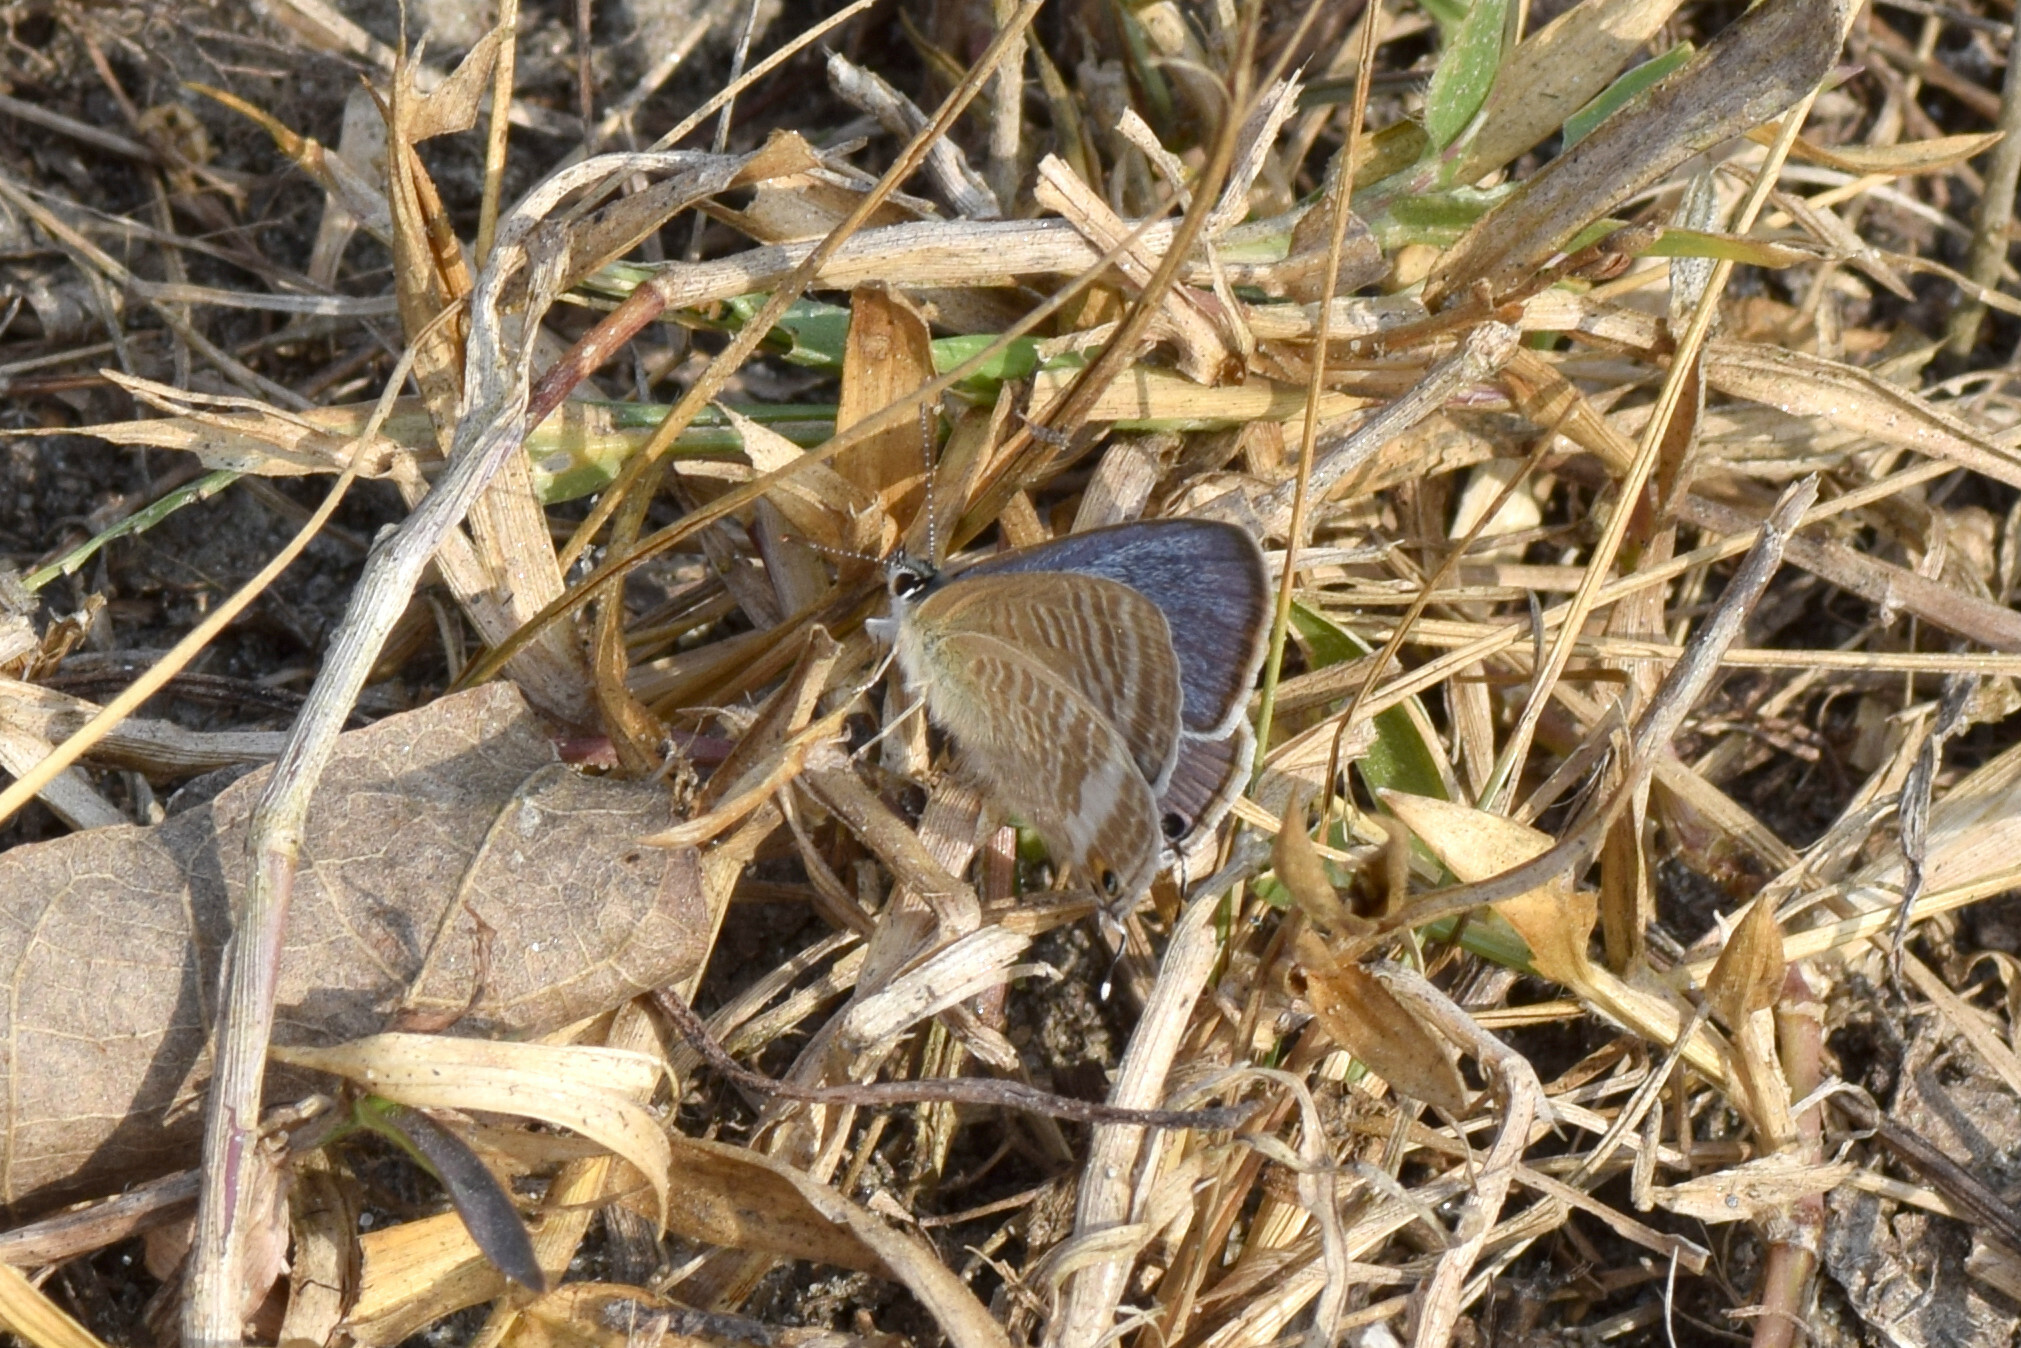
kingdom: Animalia
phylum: Arthropoda
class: Insecta
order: Lepidoptera
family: Lycaenidae
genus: Lampides
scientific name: Lampides boeticus
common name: Long-tailed blue
